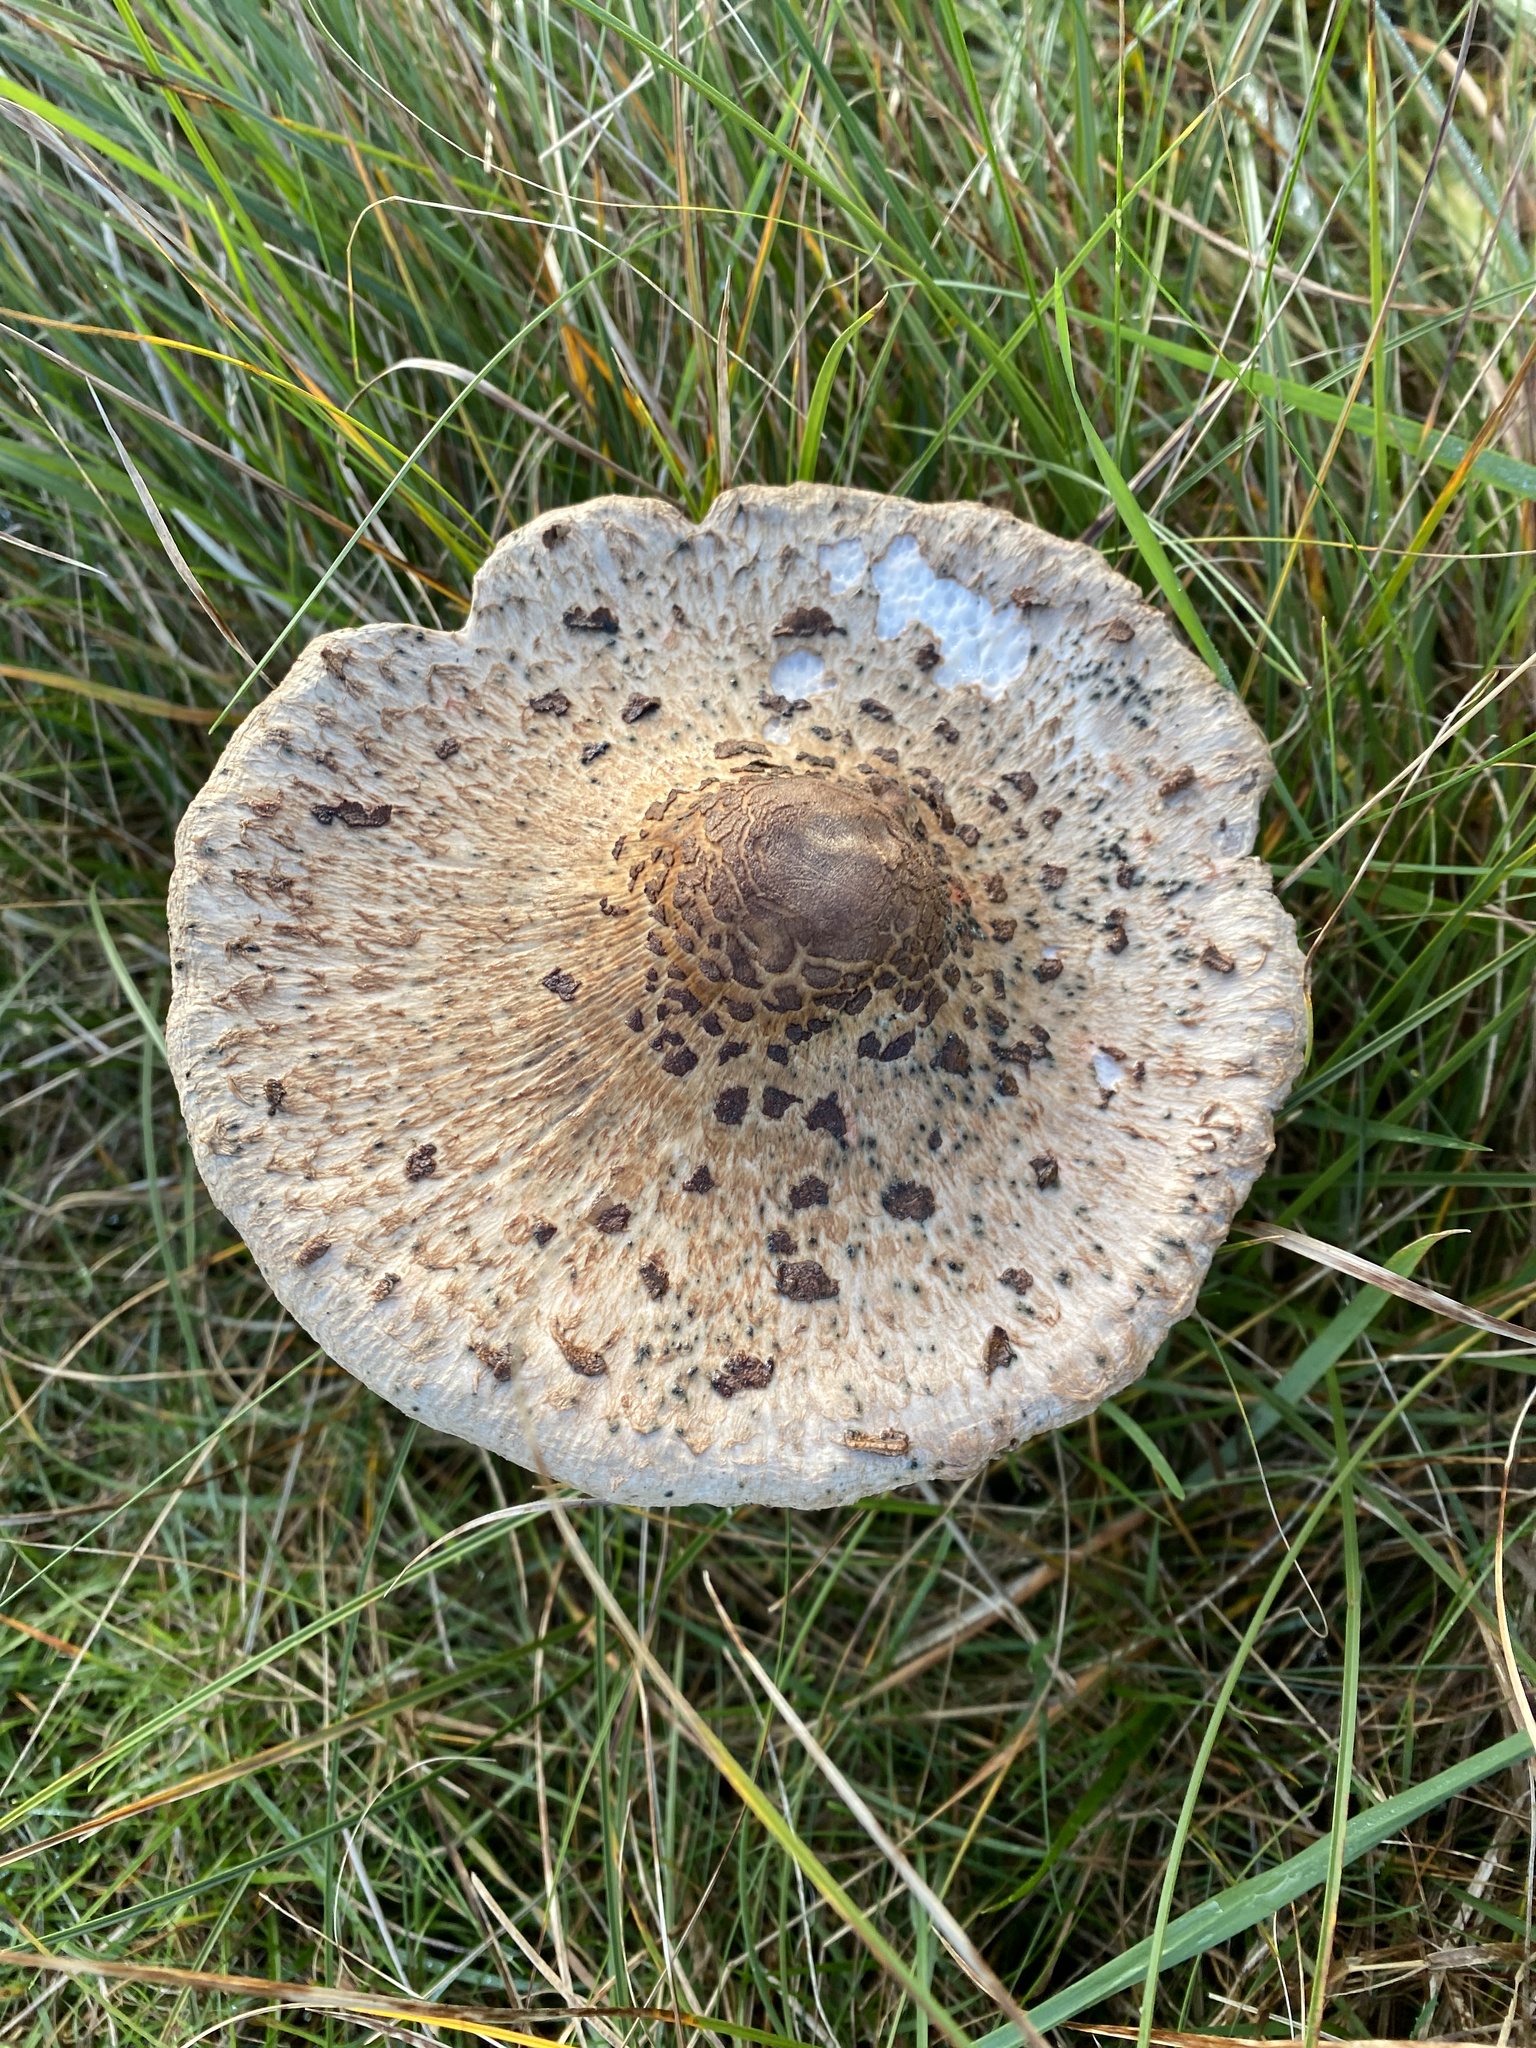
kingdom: Fungi
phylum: Basidiomycota
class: Agaricomycetes
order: Agaricales
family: Agaricaceae
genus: Macrolepiota
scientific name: Macrolepiota procera
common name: Parasol
